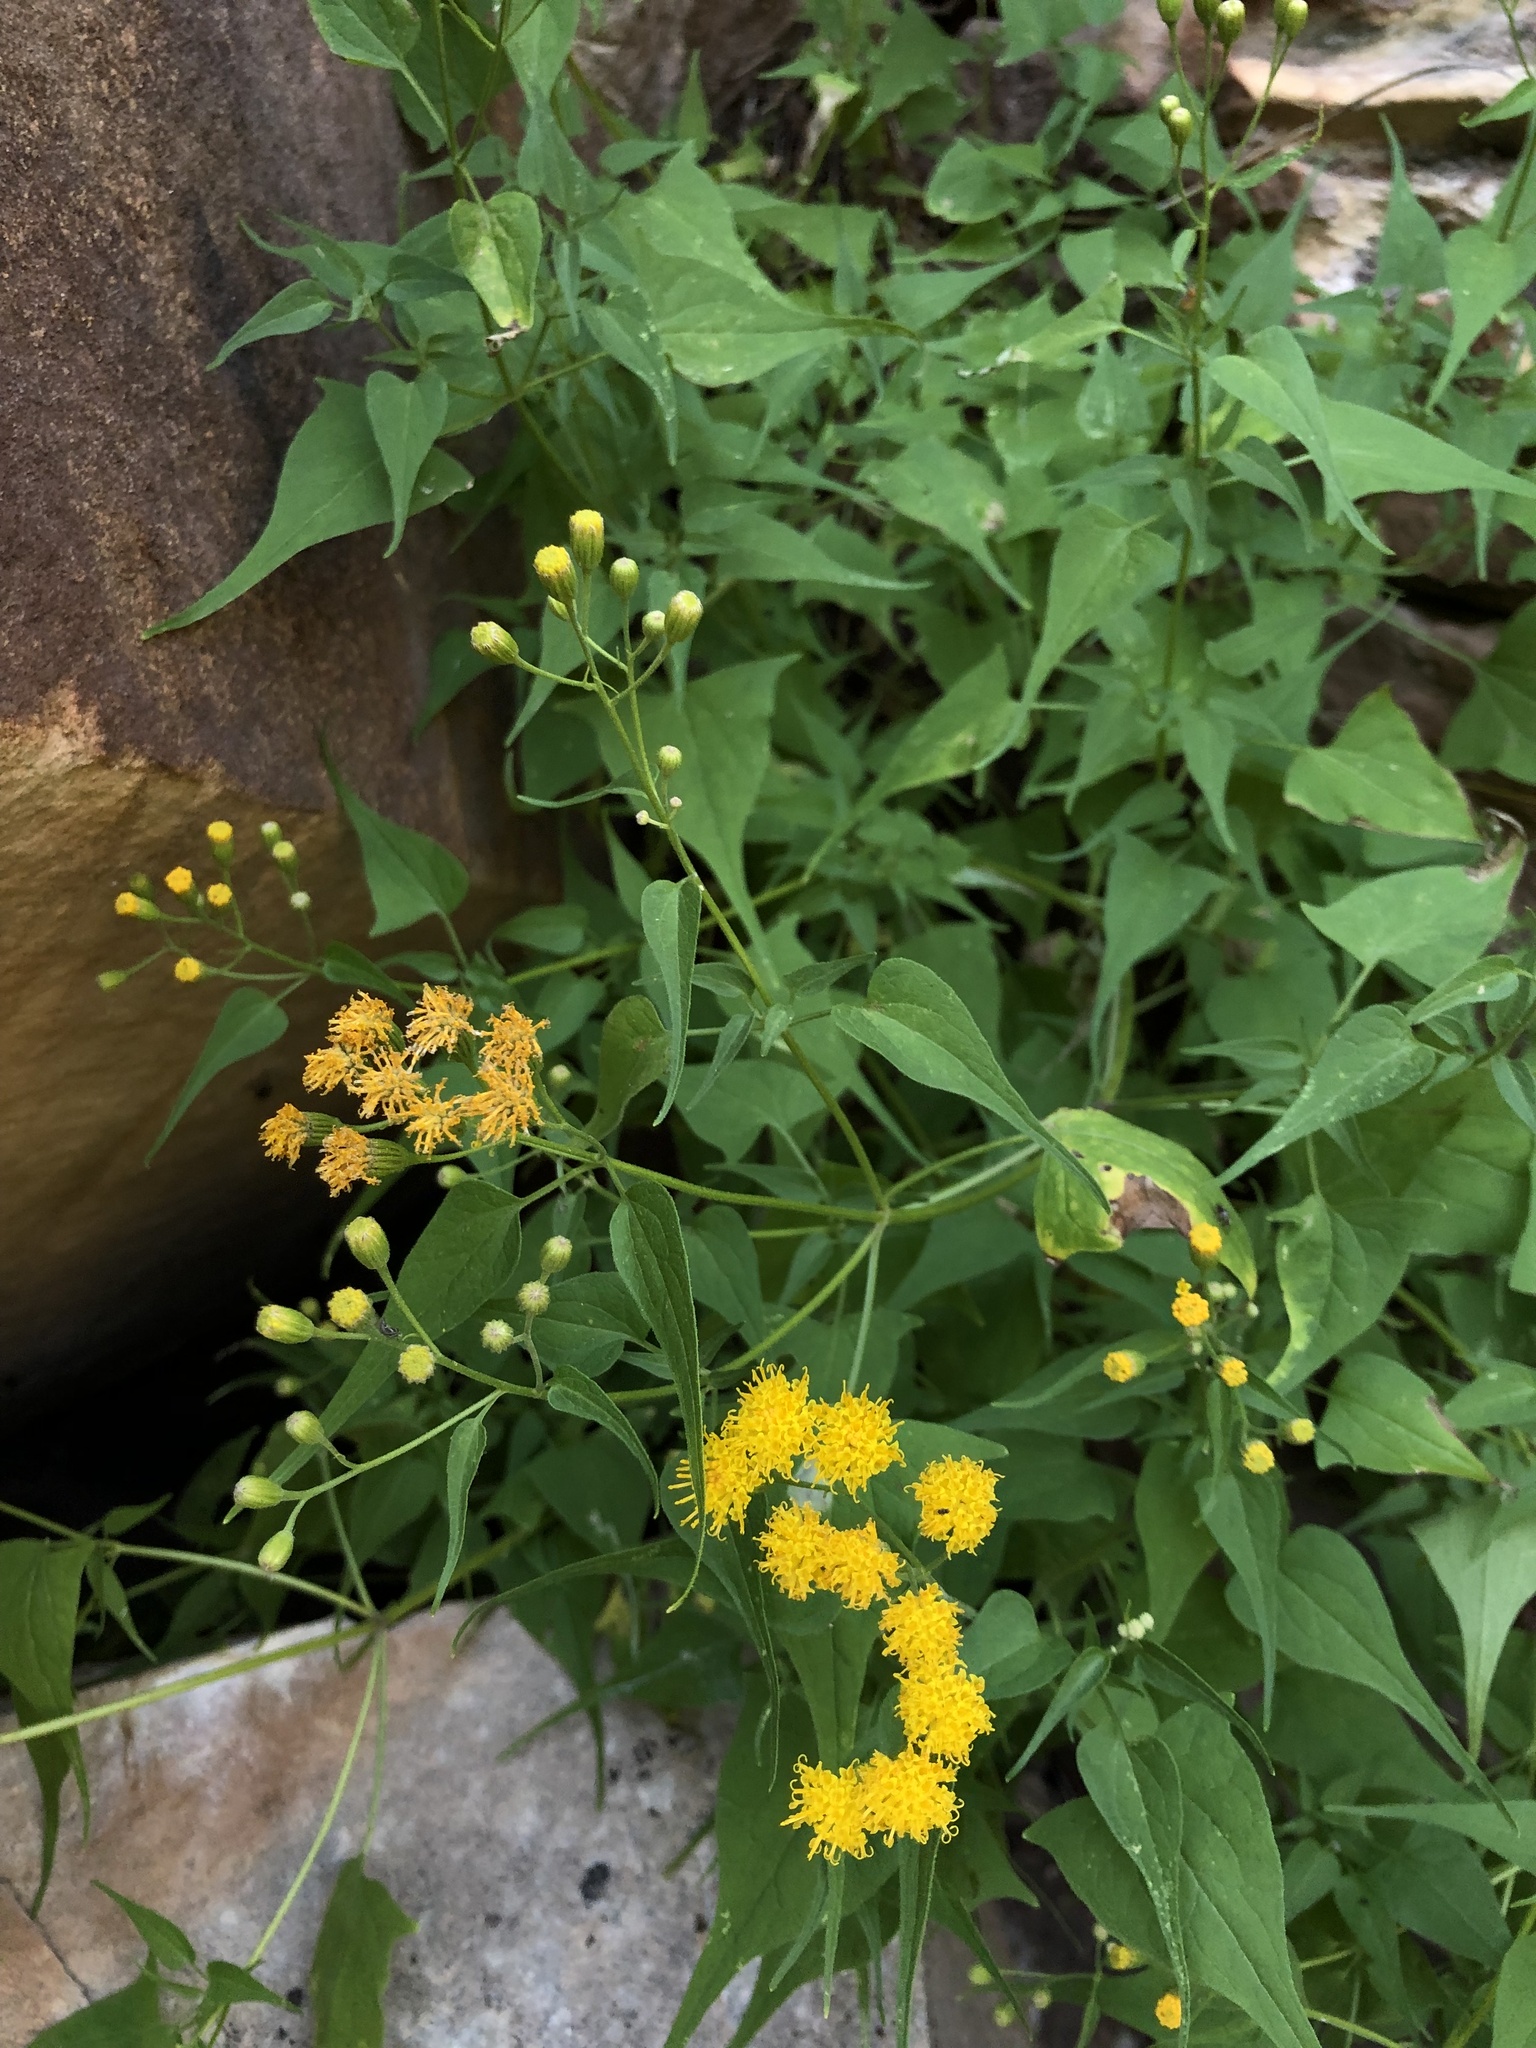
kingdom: Plantae
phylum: Tracheophyta
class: Magnoliopsida
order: Asterales
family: Asteraceae
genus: Pericome
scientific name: Pericome caudata
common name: Taperleaf
